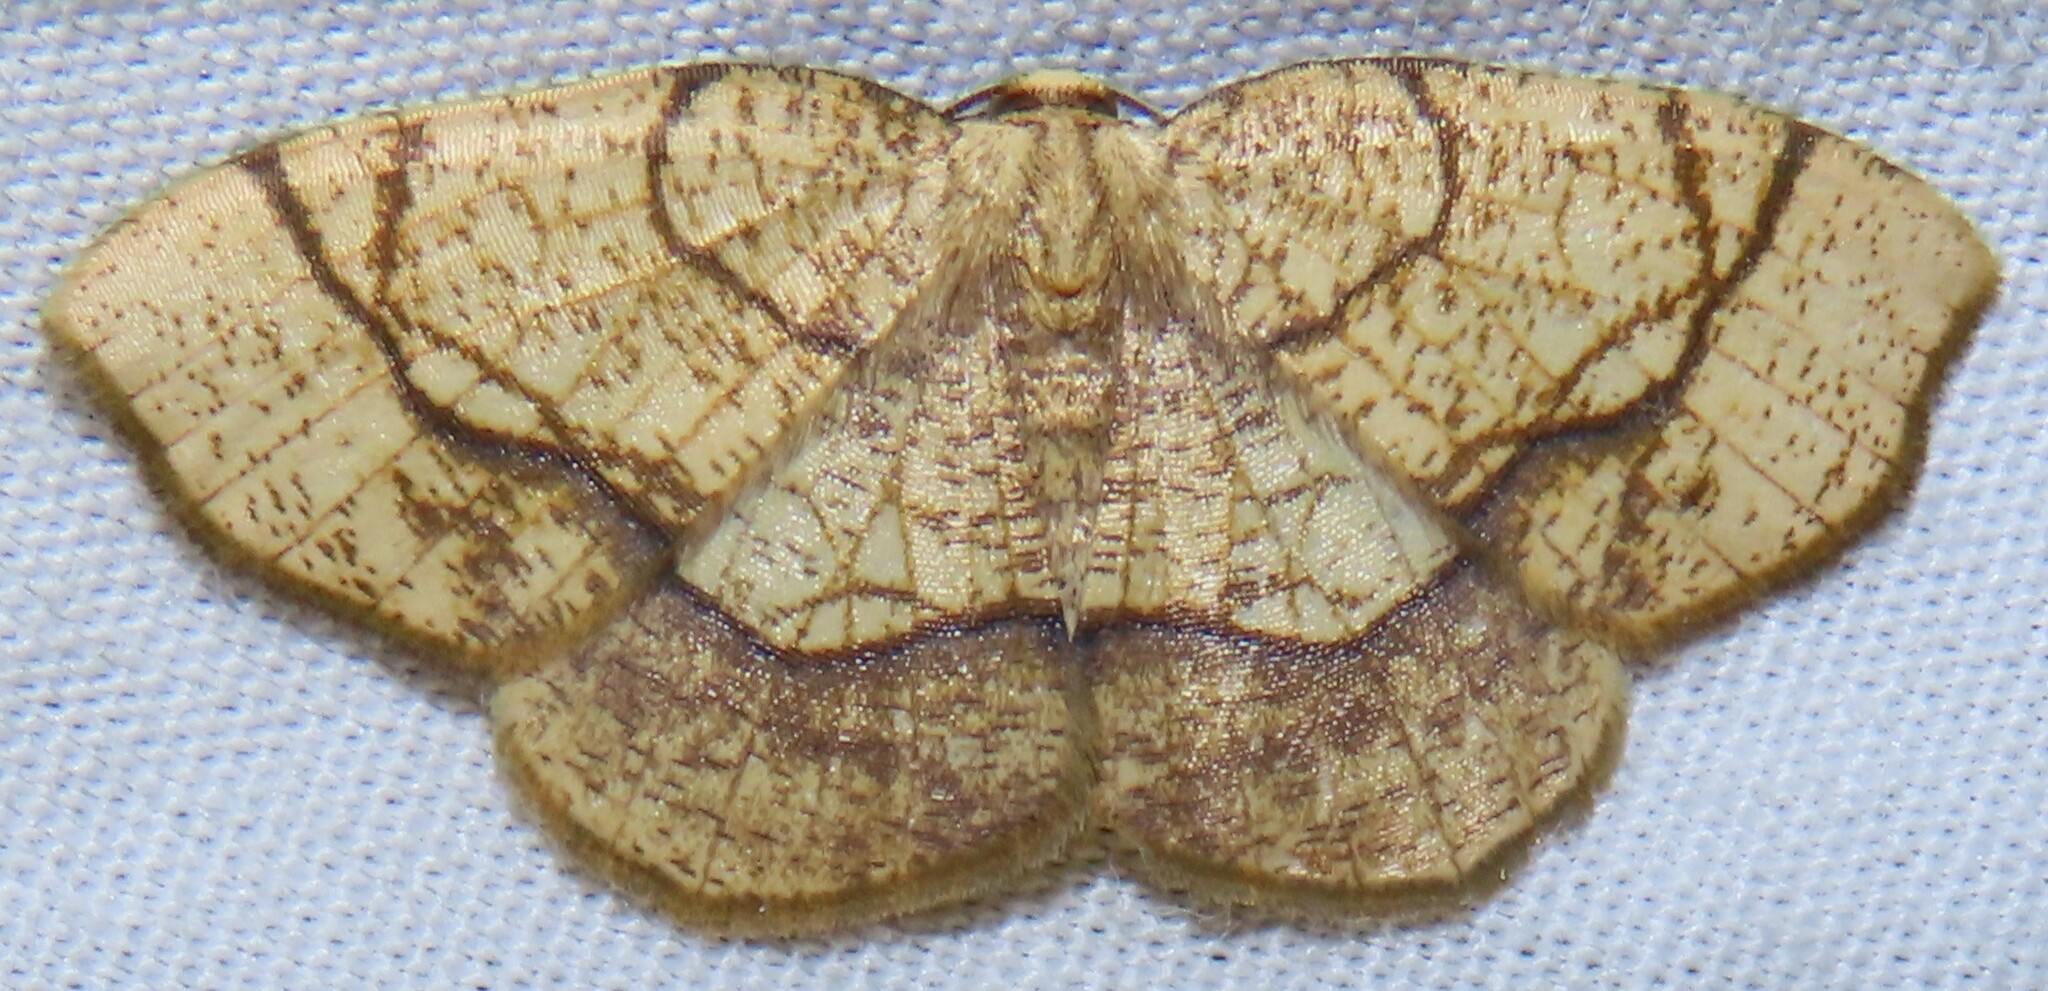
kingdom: Animalia
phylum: Arthropoda
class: Insecta
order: Lepidoptera
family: Geometridae
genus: Nematocampa
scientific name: Nematocampa resistaria
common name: Horned spanworm moth
